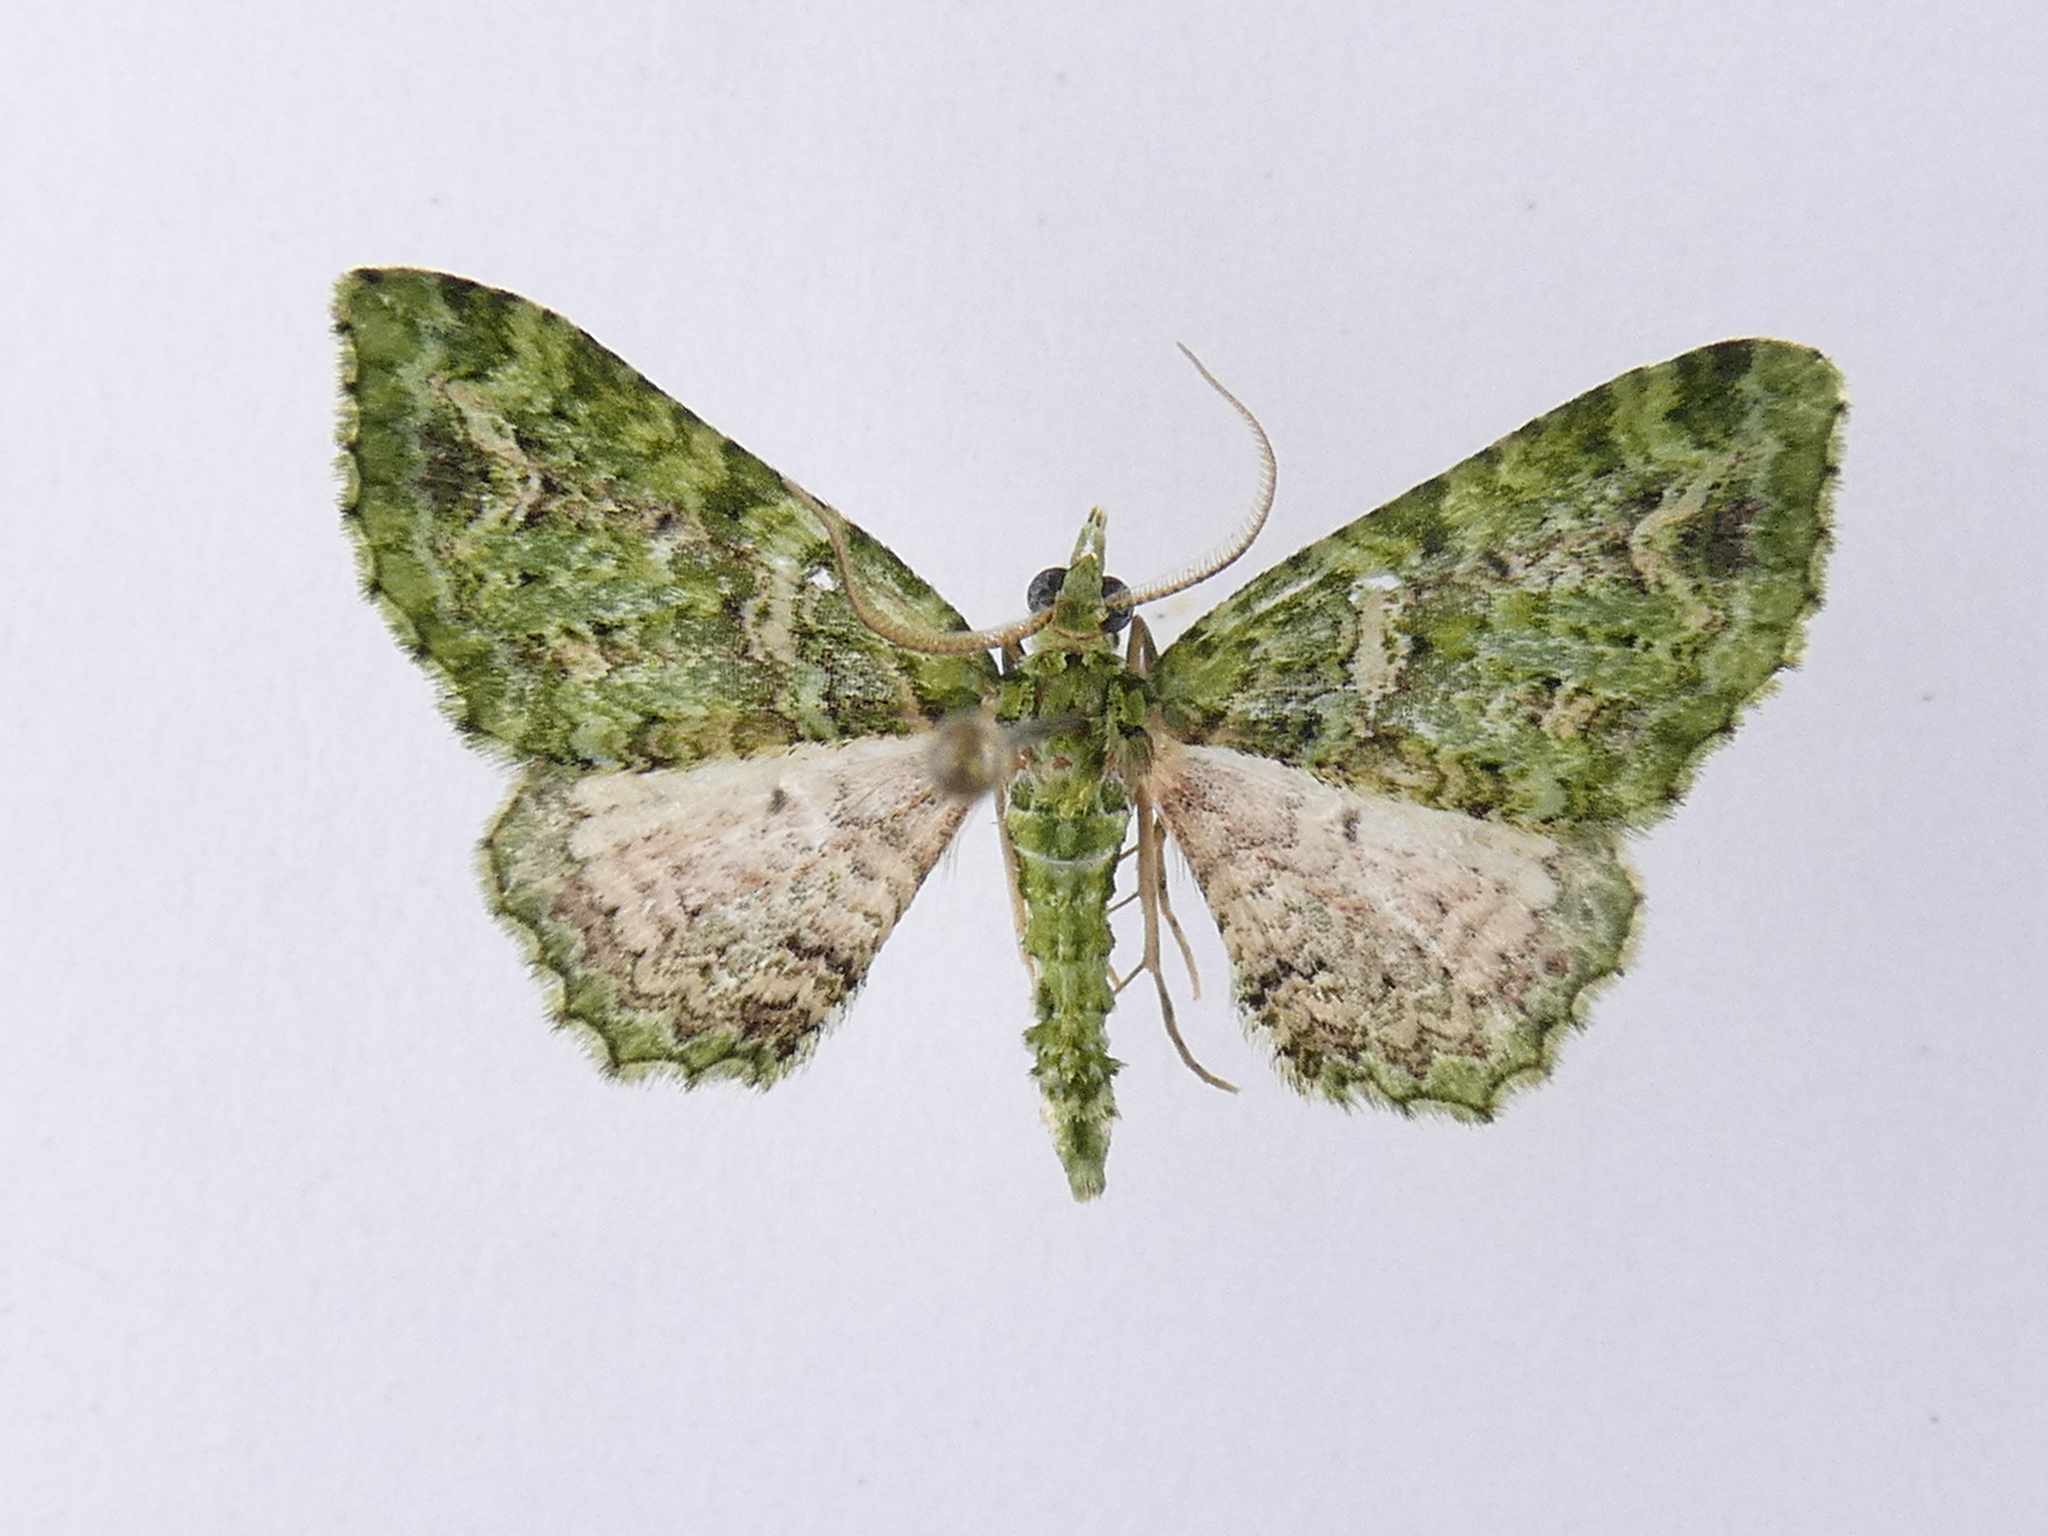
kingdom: Animalia
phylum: Arthropoda
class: Insecta
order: Lepidoptera
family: Geometridae
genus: Pasiphila
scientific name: Pasiphila muscosata
